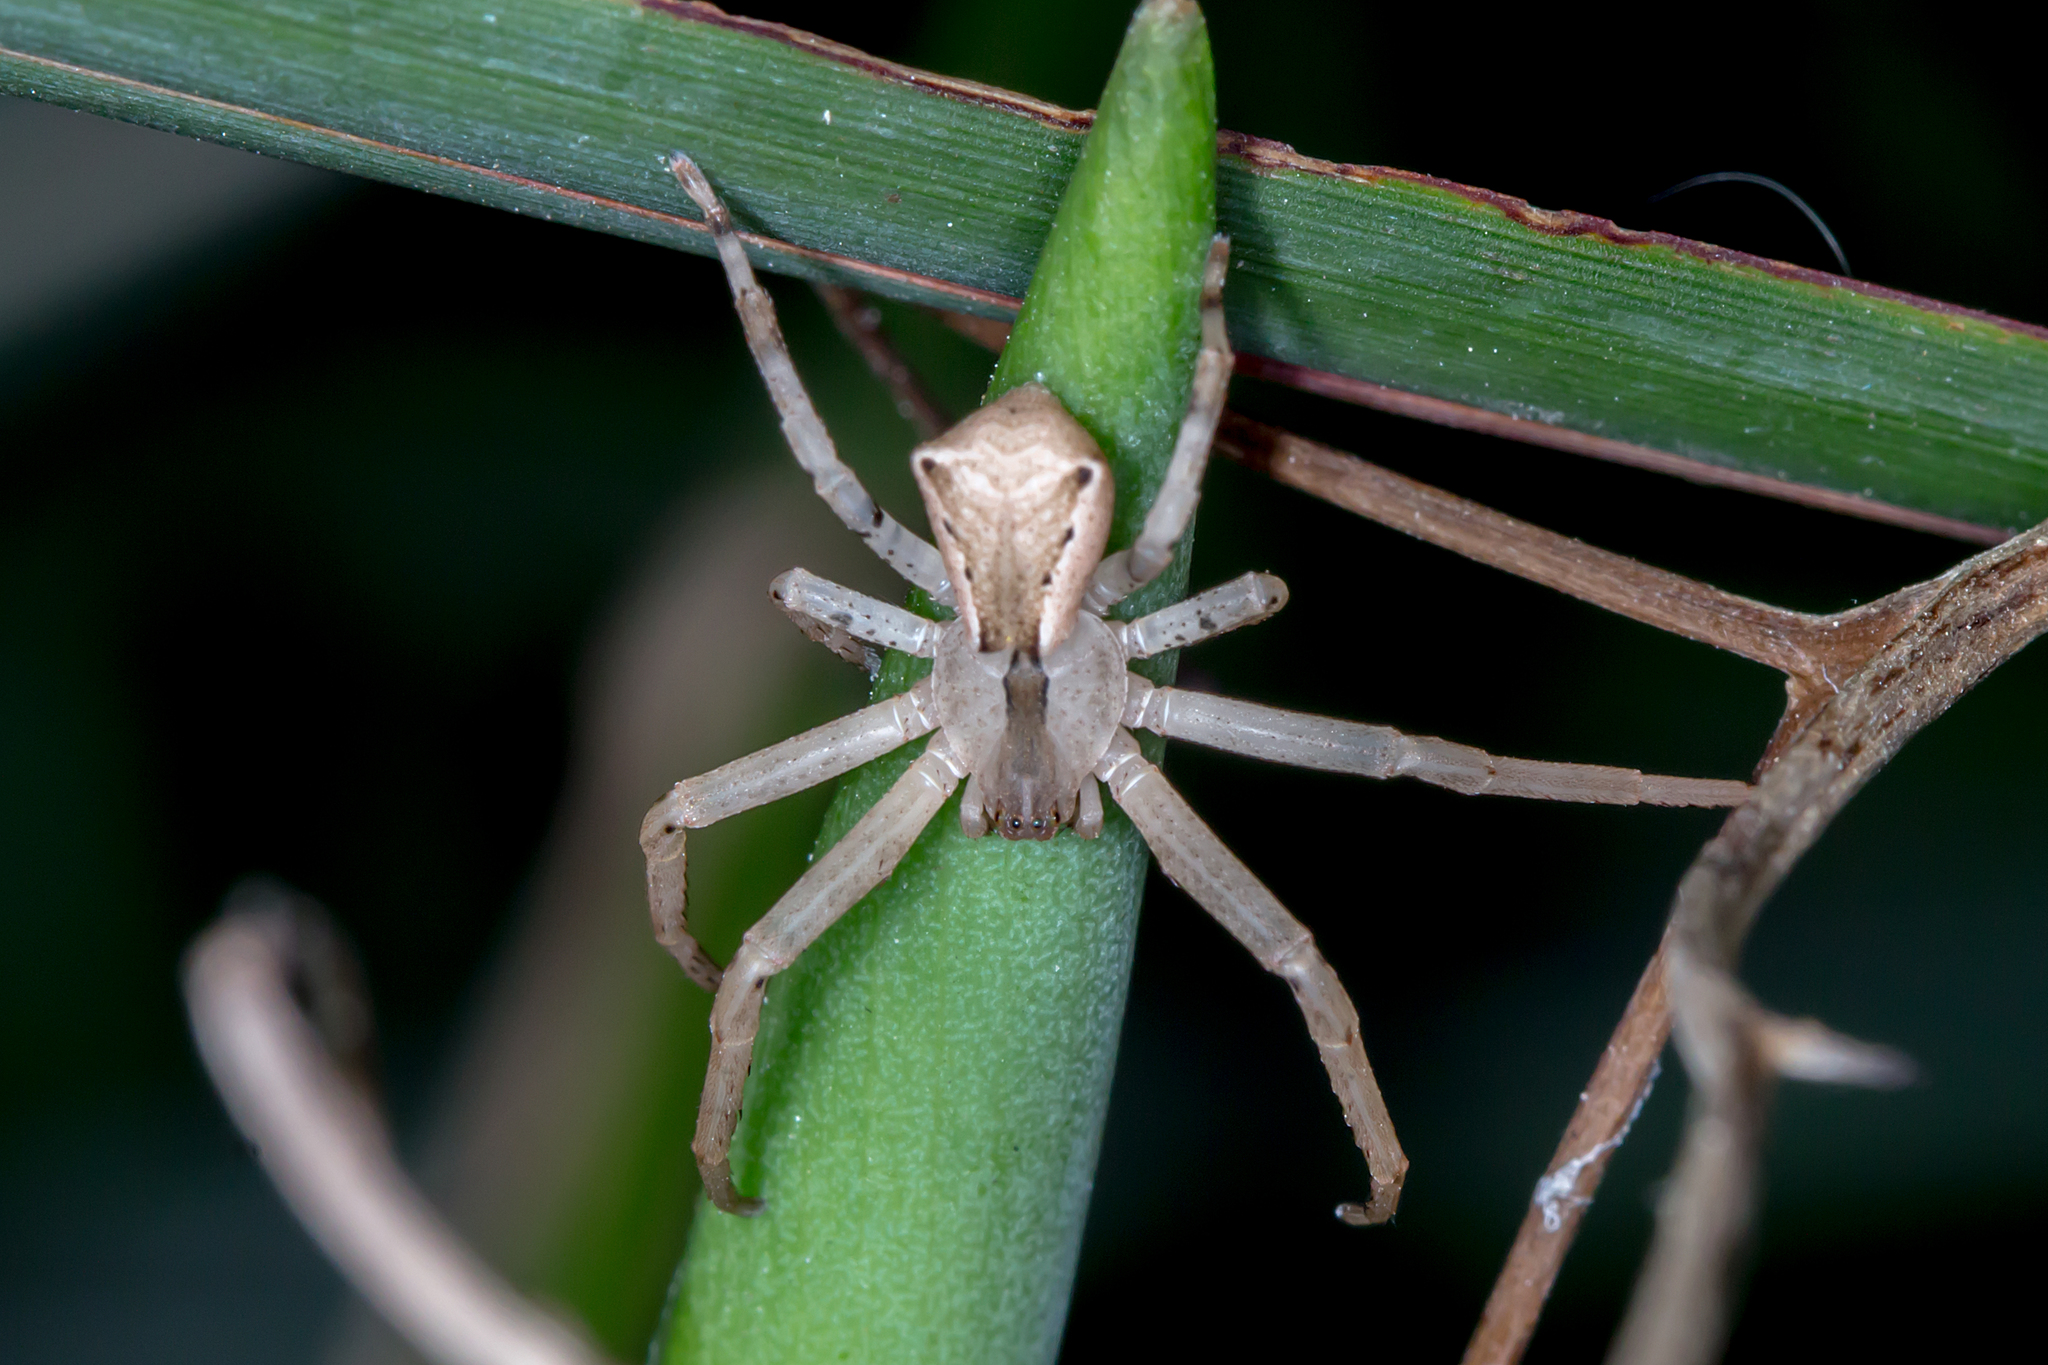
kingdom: Animalia
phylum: Arthropoda
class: Arachnida
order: Araneae
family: Thomisidae
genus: Sidymella
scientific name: Sidymella trapezia
